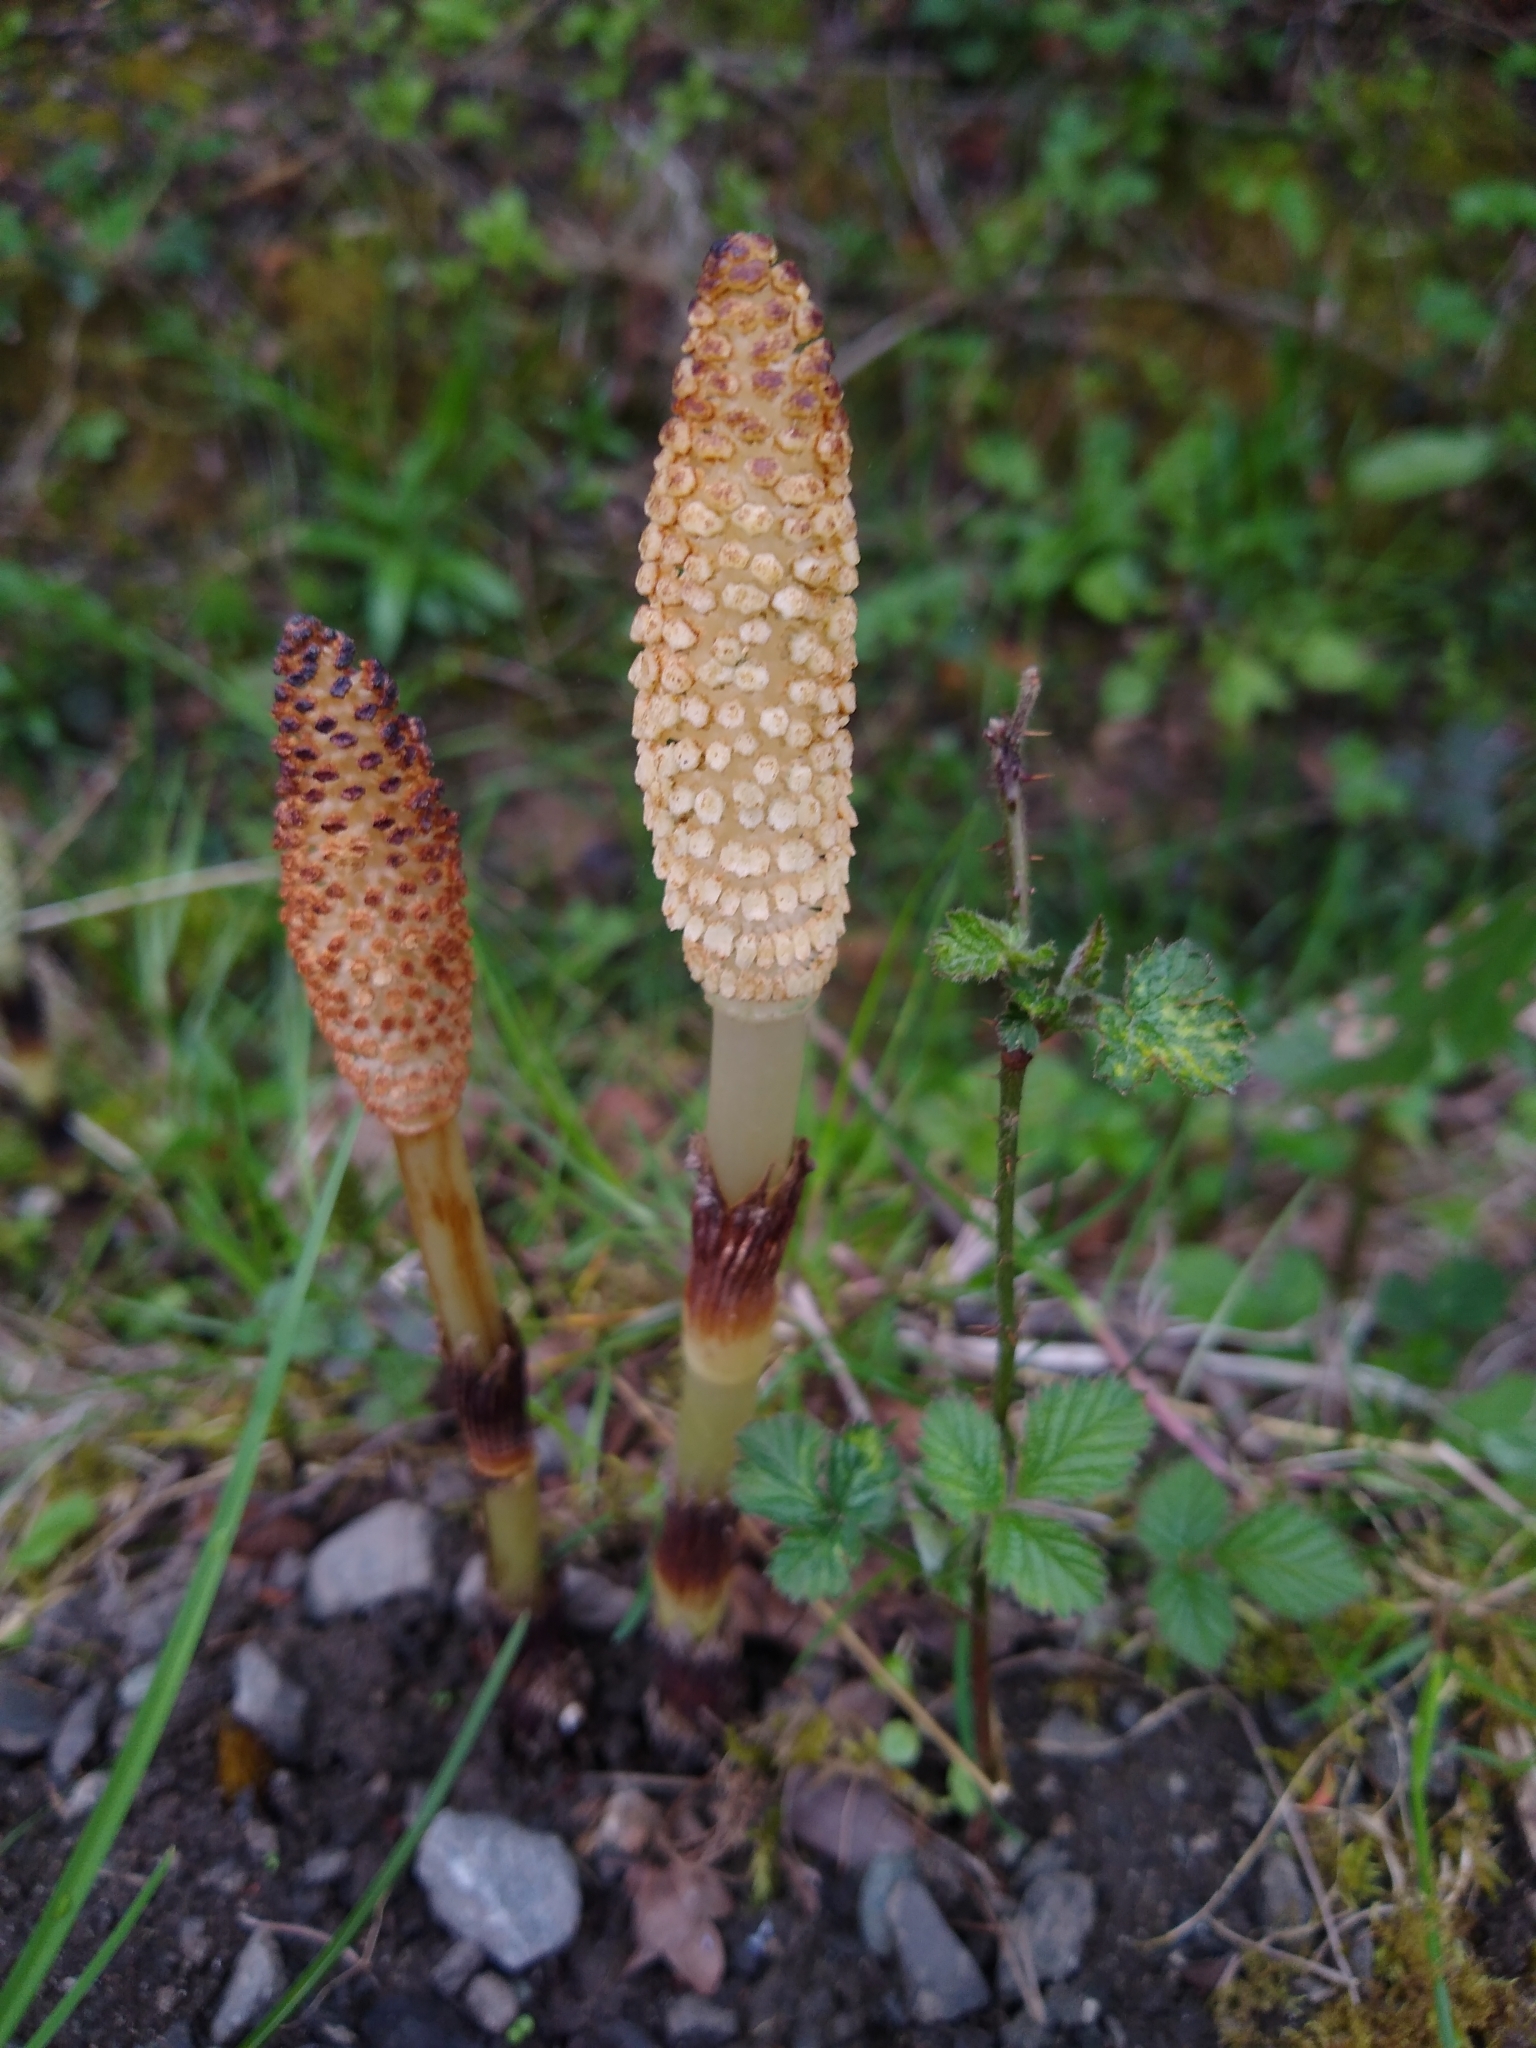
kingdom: Plantae
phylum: Tracheophyta
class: Polypodiopsida
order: Equisetales
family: Equisetaceae
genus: Equisetum
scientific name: Equisetum telmateia
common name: Great horsetail
